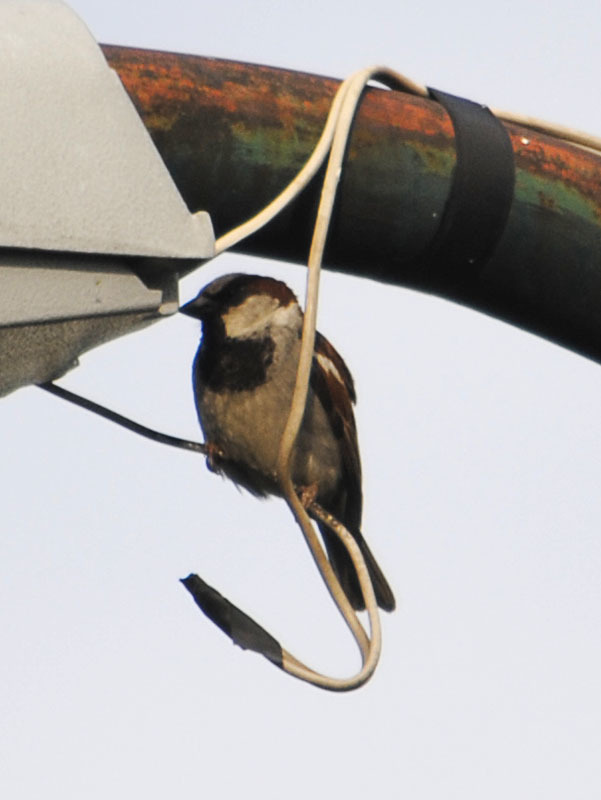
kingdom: Animalia
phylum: Chordata
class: Aves
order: Passeriformes
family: Passeridae
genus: Passer
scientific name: Passer domesticus
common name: House sparrow
